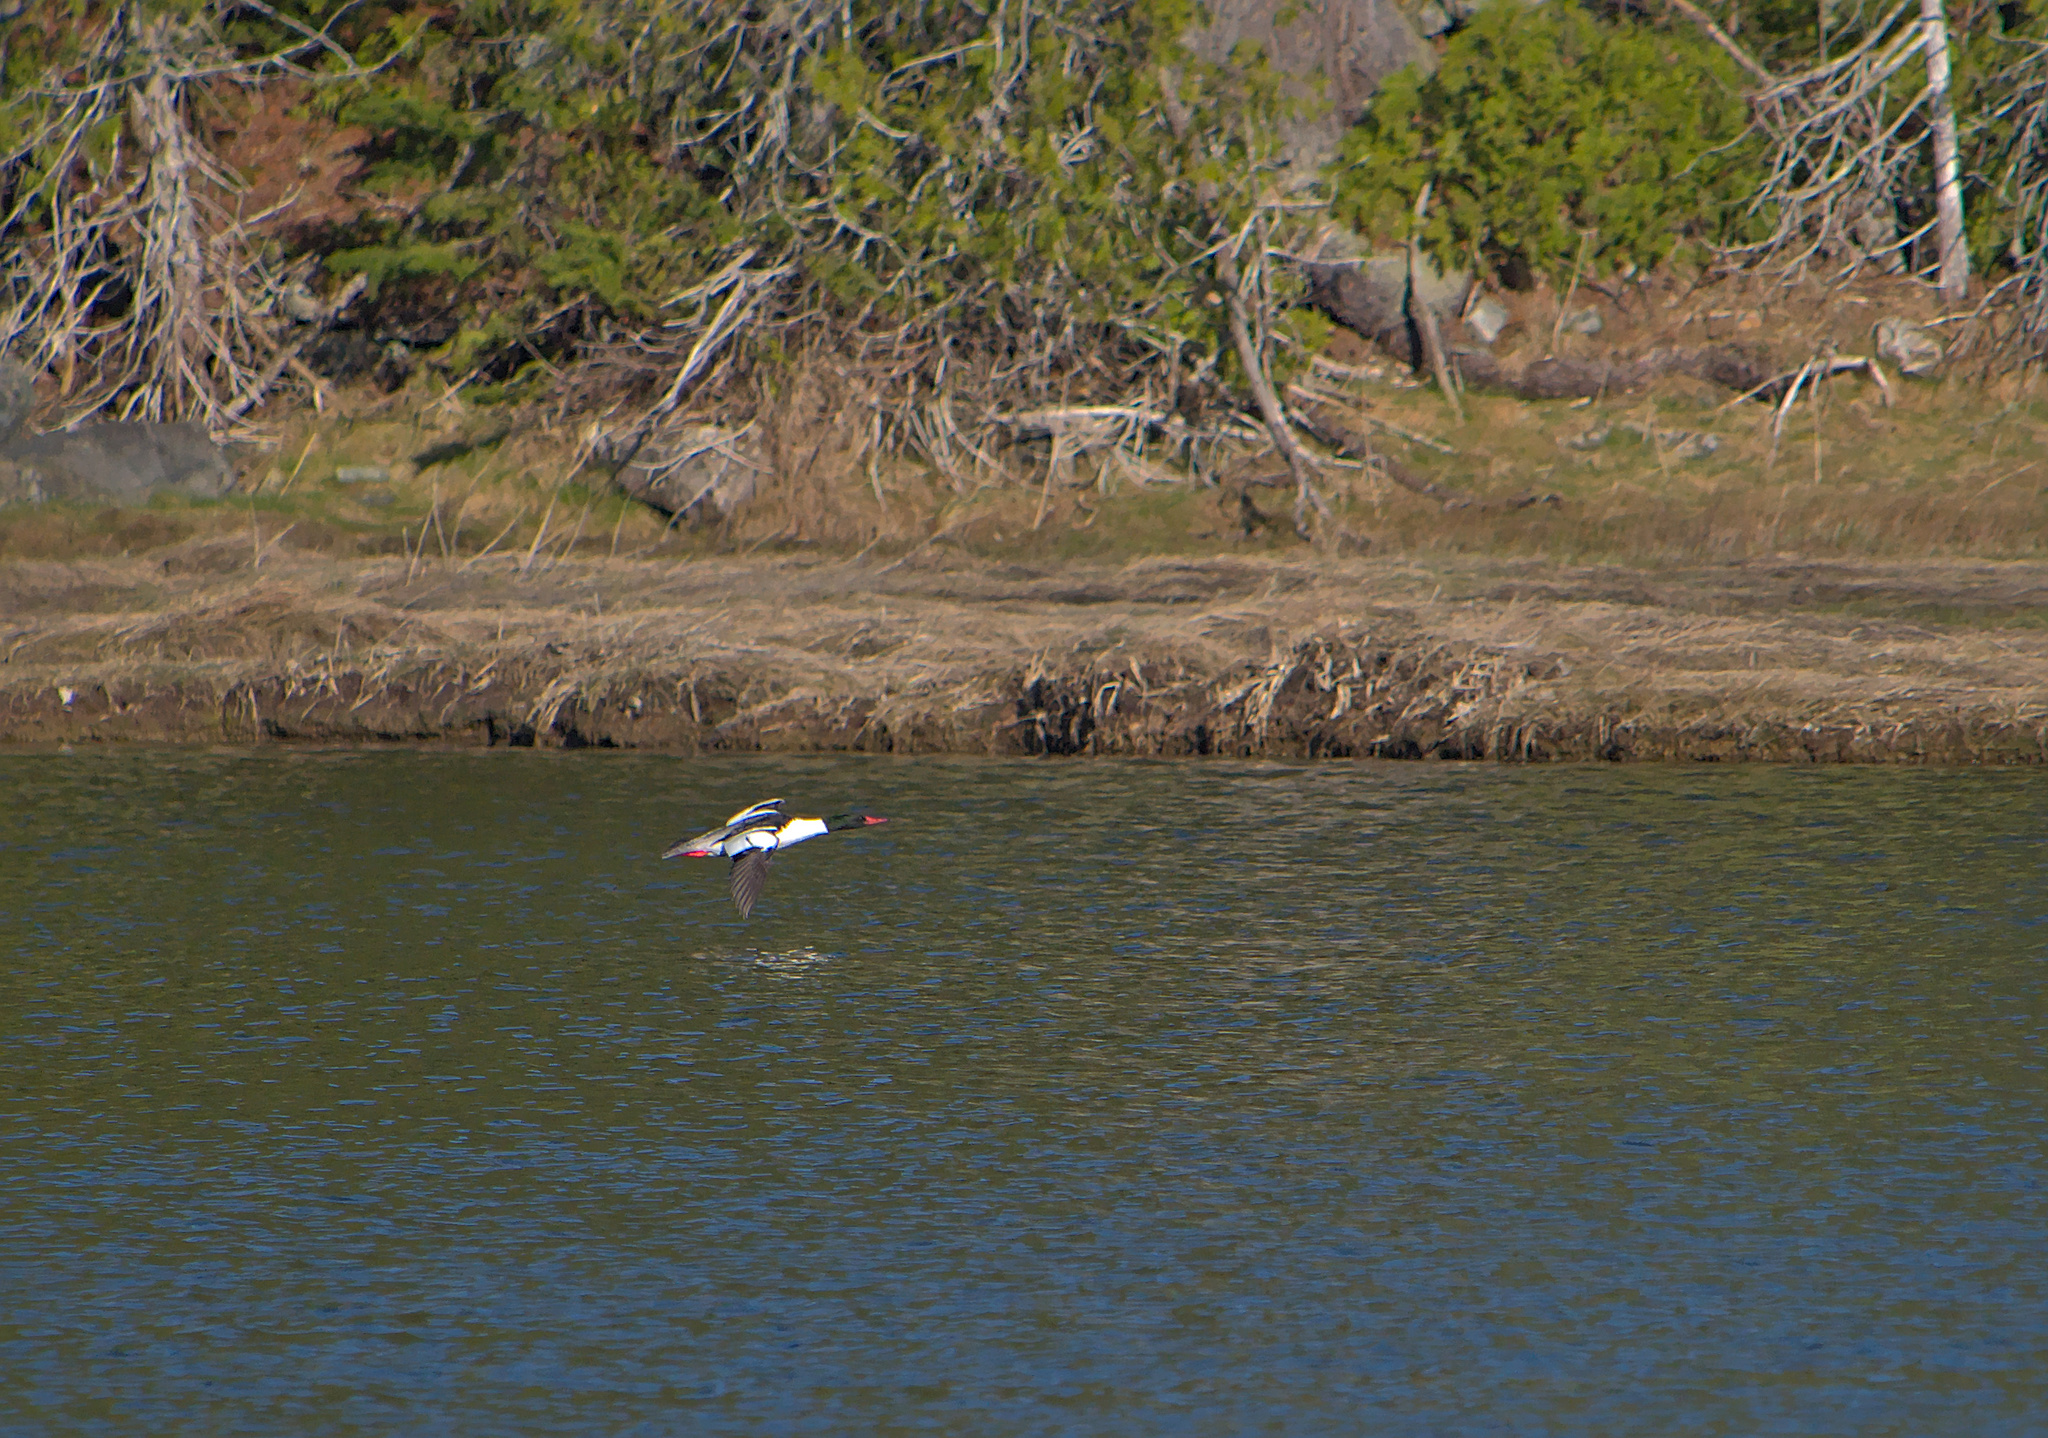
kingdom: Animalia
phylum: Chordata
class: Aves
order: Anseriformes
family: Anatidae
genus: Mergus
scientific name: Mergus merganser
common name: Common merganser
